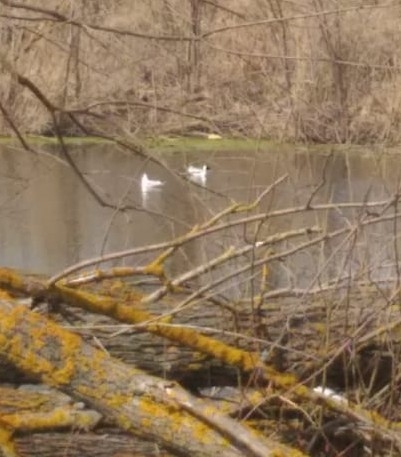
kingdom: Animalia
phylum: Chordata
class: Aves
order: Charadriiformes
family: Laridae
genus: Chroicocephalus
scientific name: Chroicocephalus ridibundus
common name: Black-headed gull
